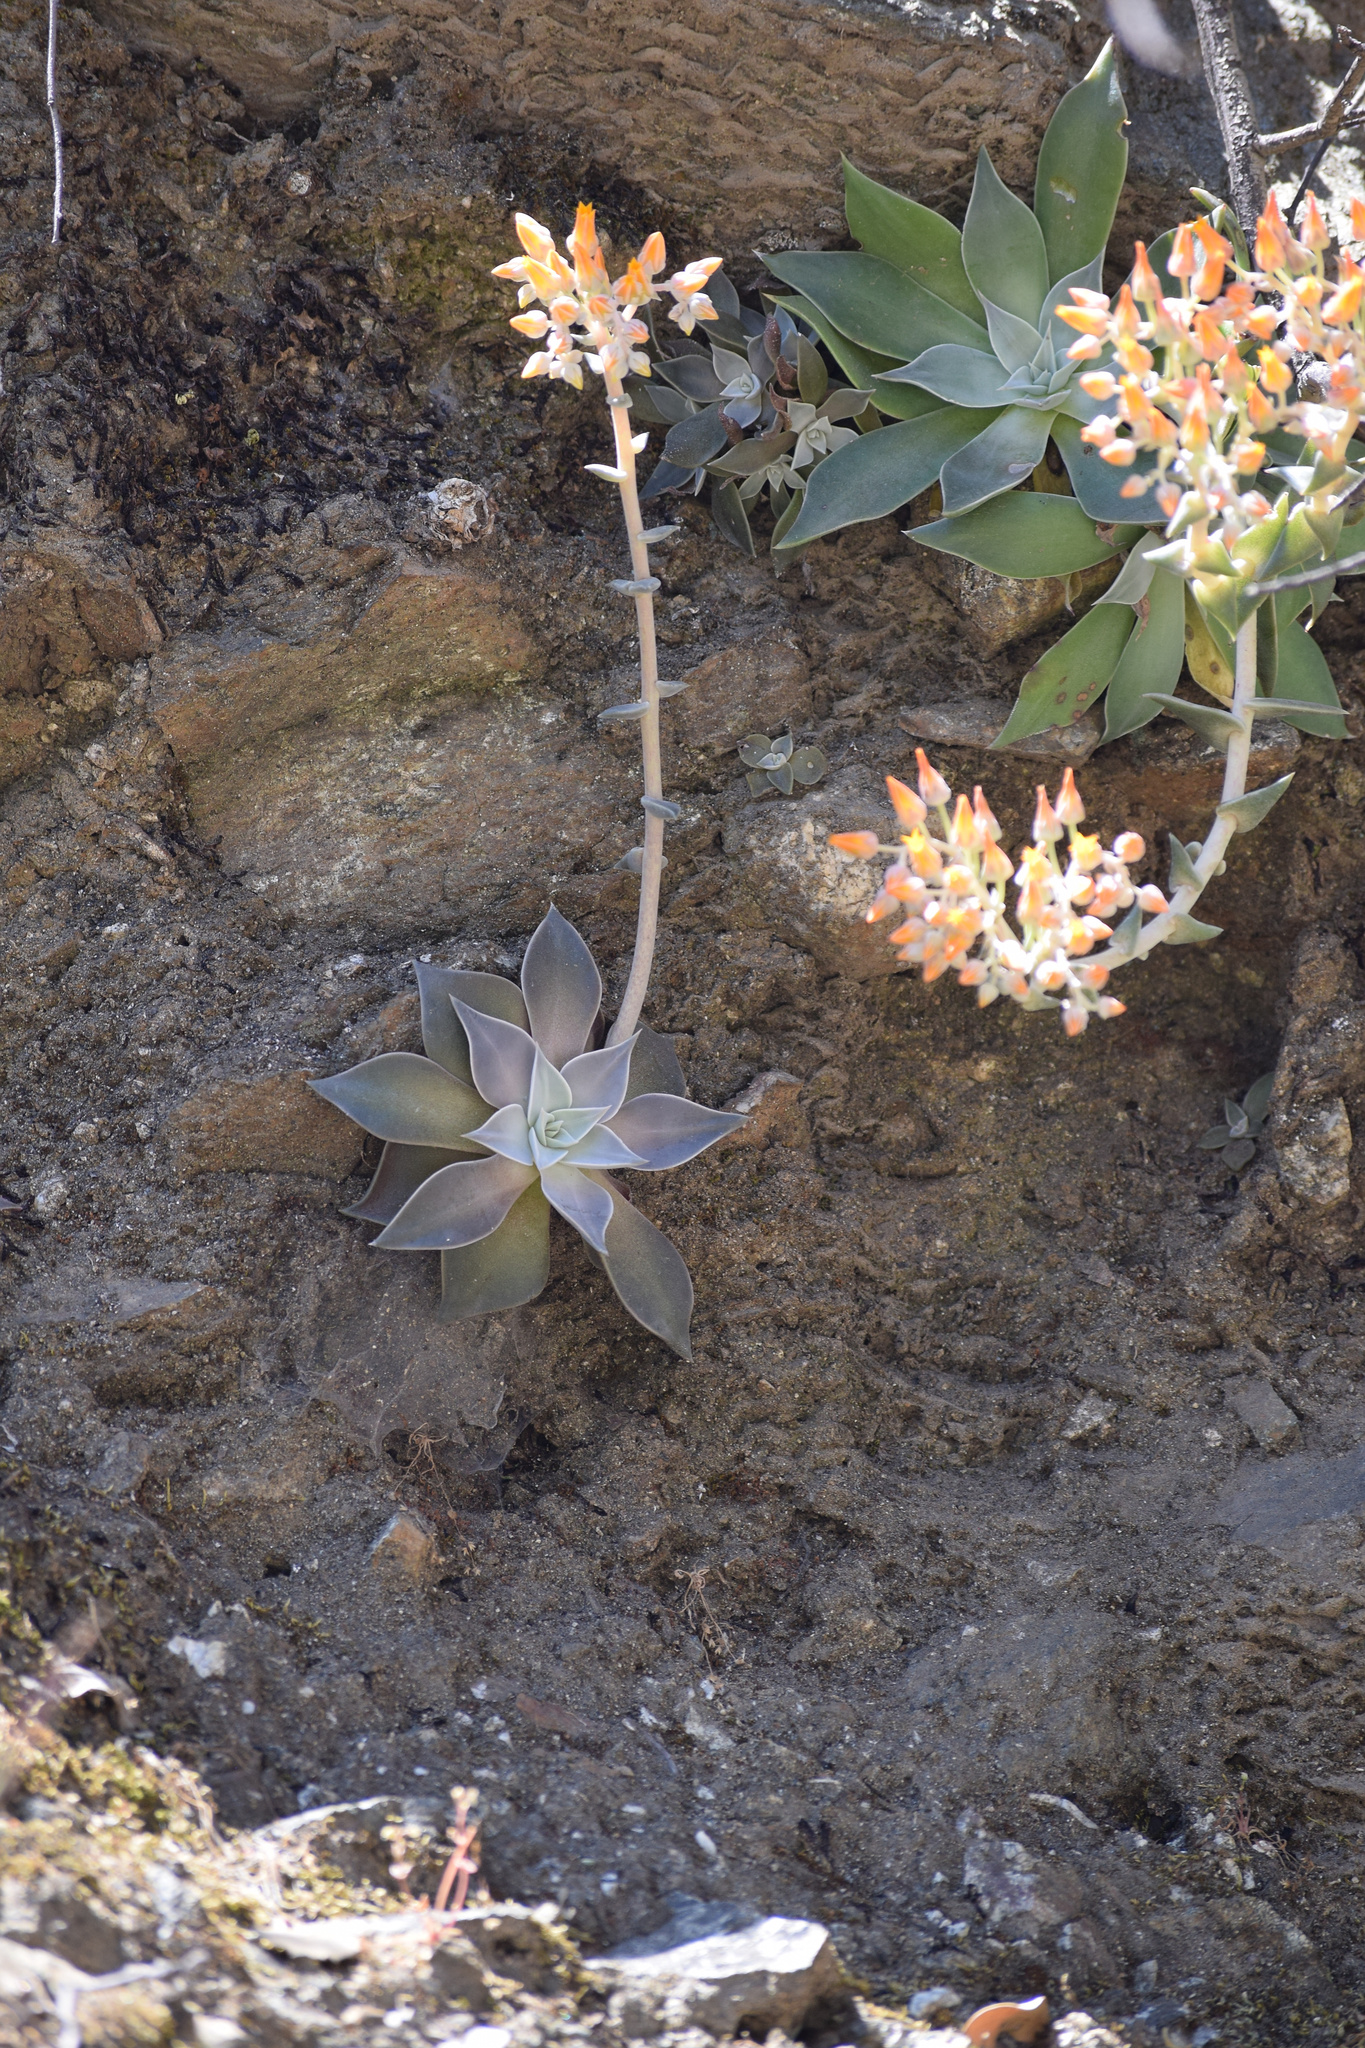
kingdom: Plantae
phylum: Tracheophyta
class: Magnoliopsida
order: Saxifragales
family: Crassulaceae
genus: Dudleya
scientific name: Dudleya cymosa
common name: Canyon dudleya
